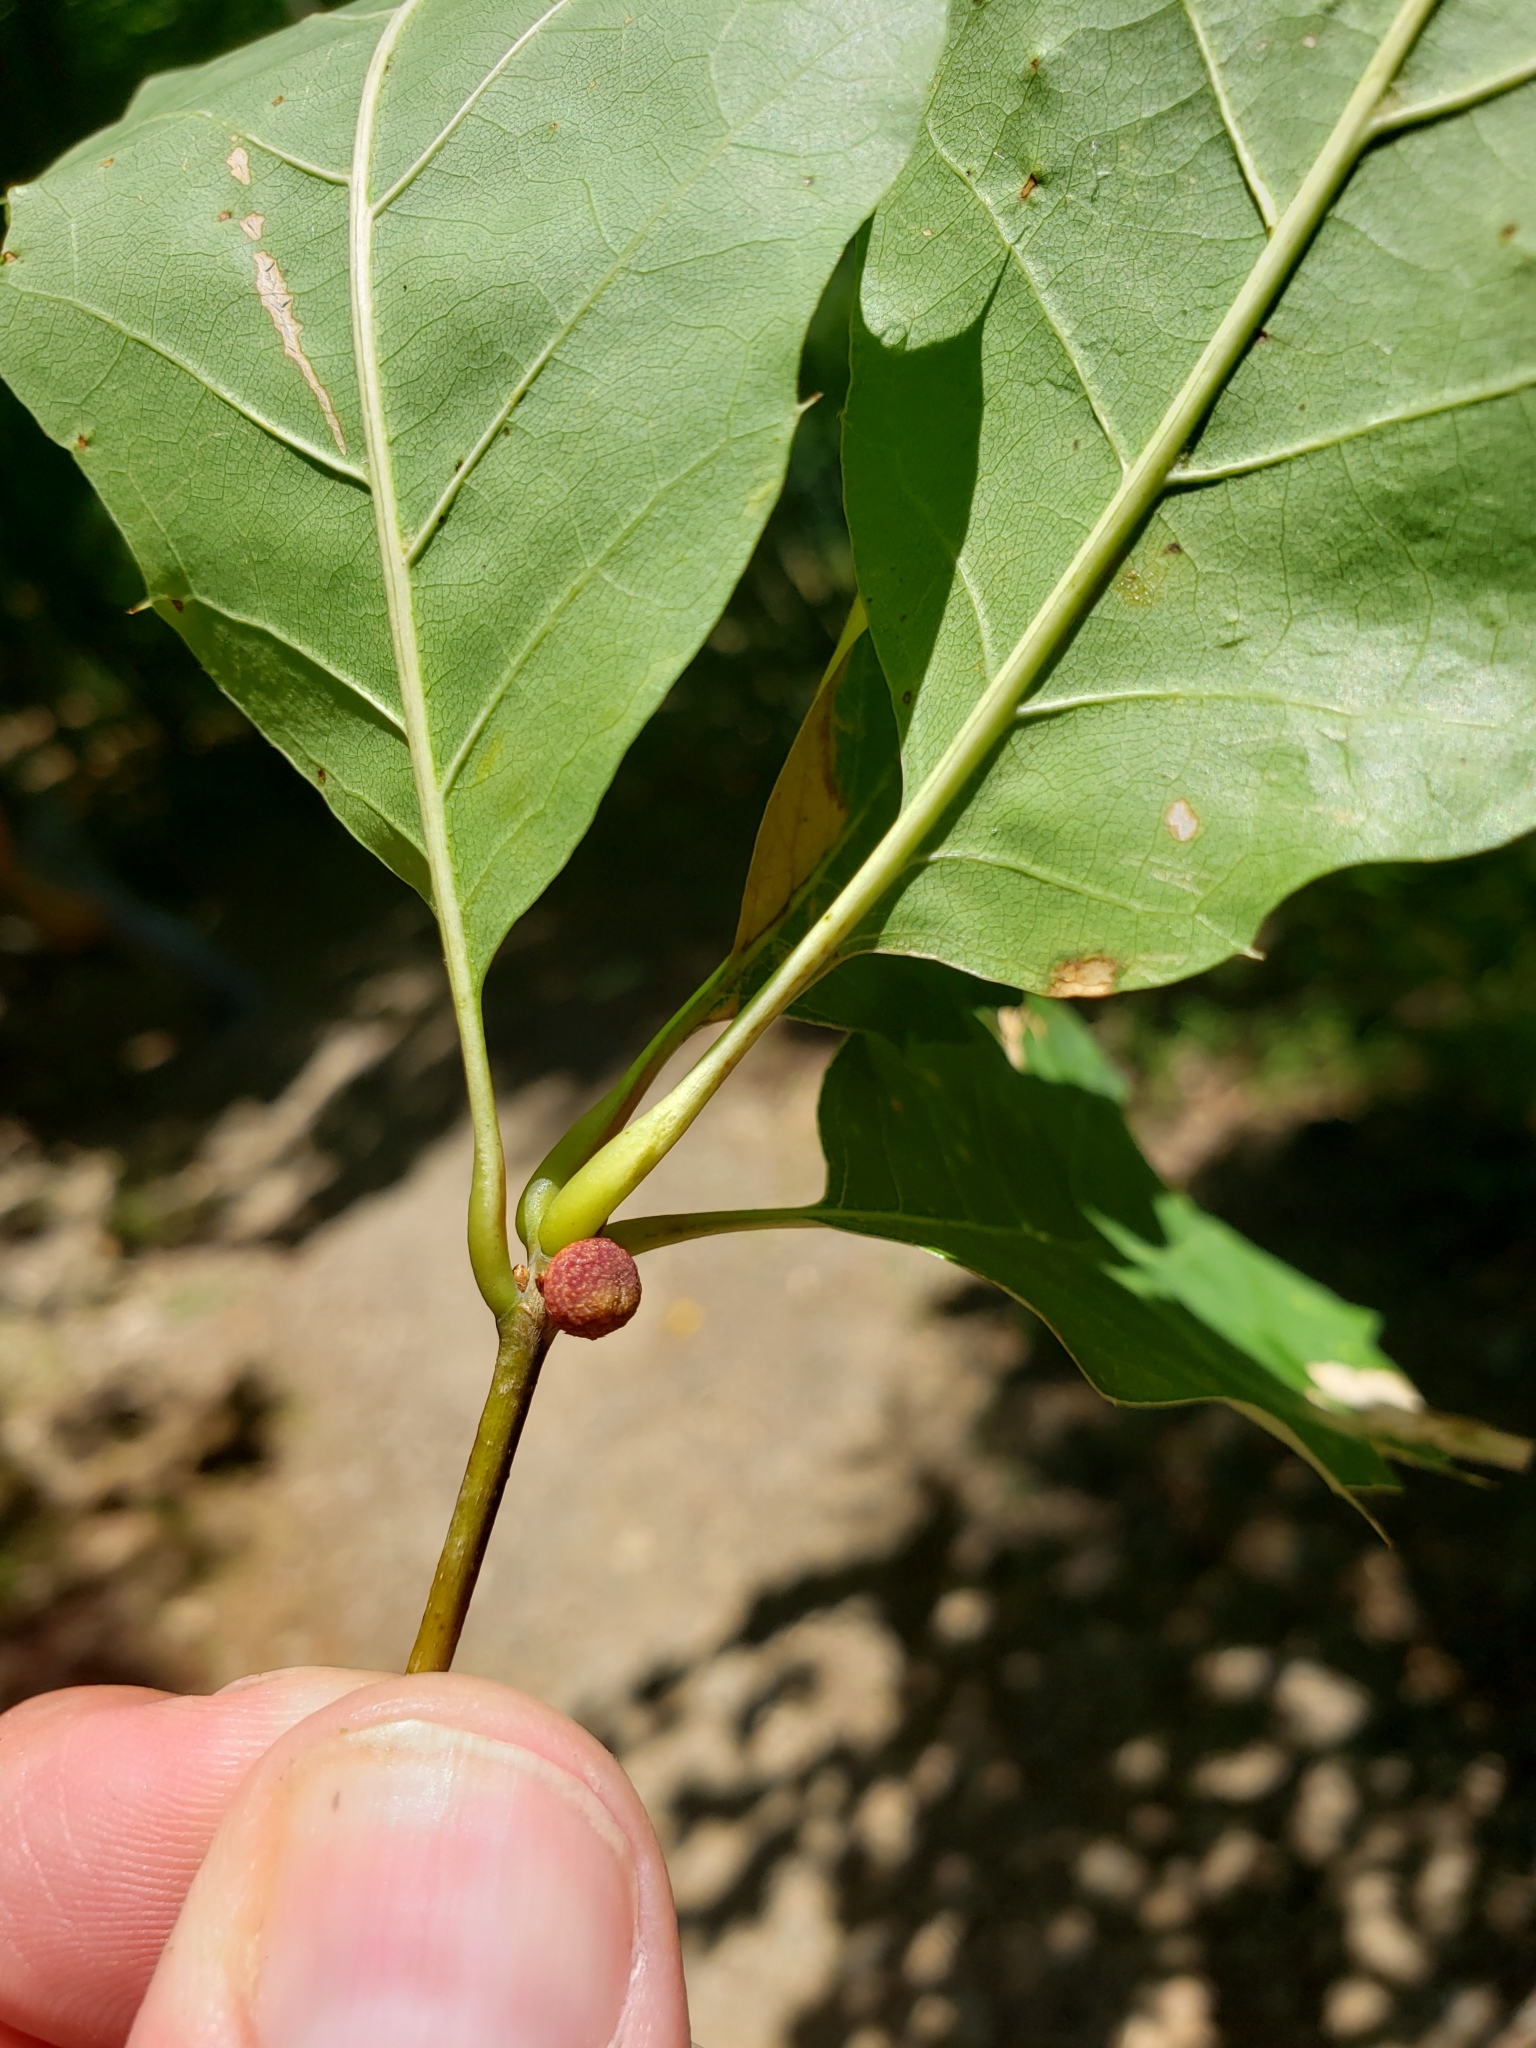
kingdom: Animalia
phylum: Arthropoda
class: Insecta
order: Hymenoptera
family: Cynipidae
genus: Kokkocynips
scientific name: Kokkocynips imbricariae
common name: Banded bullet gall wasp
